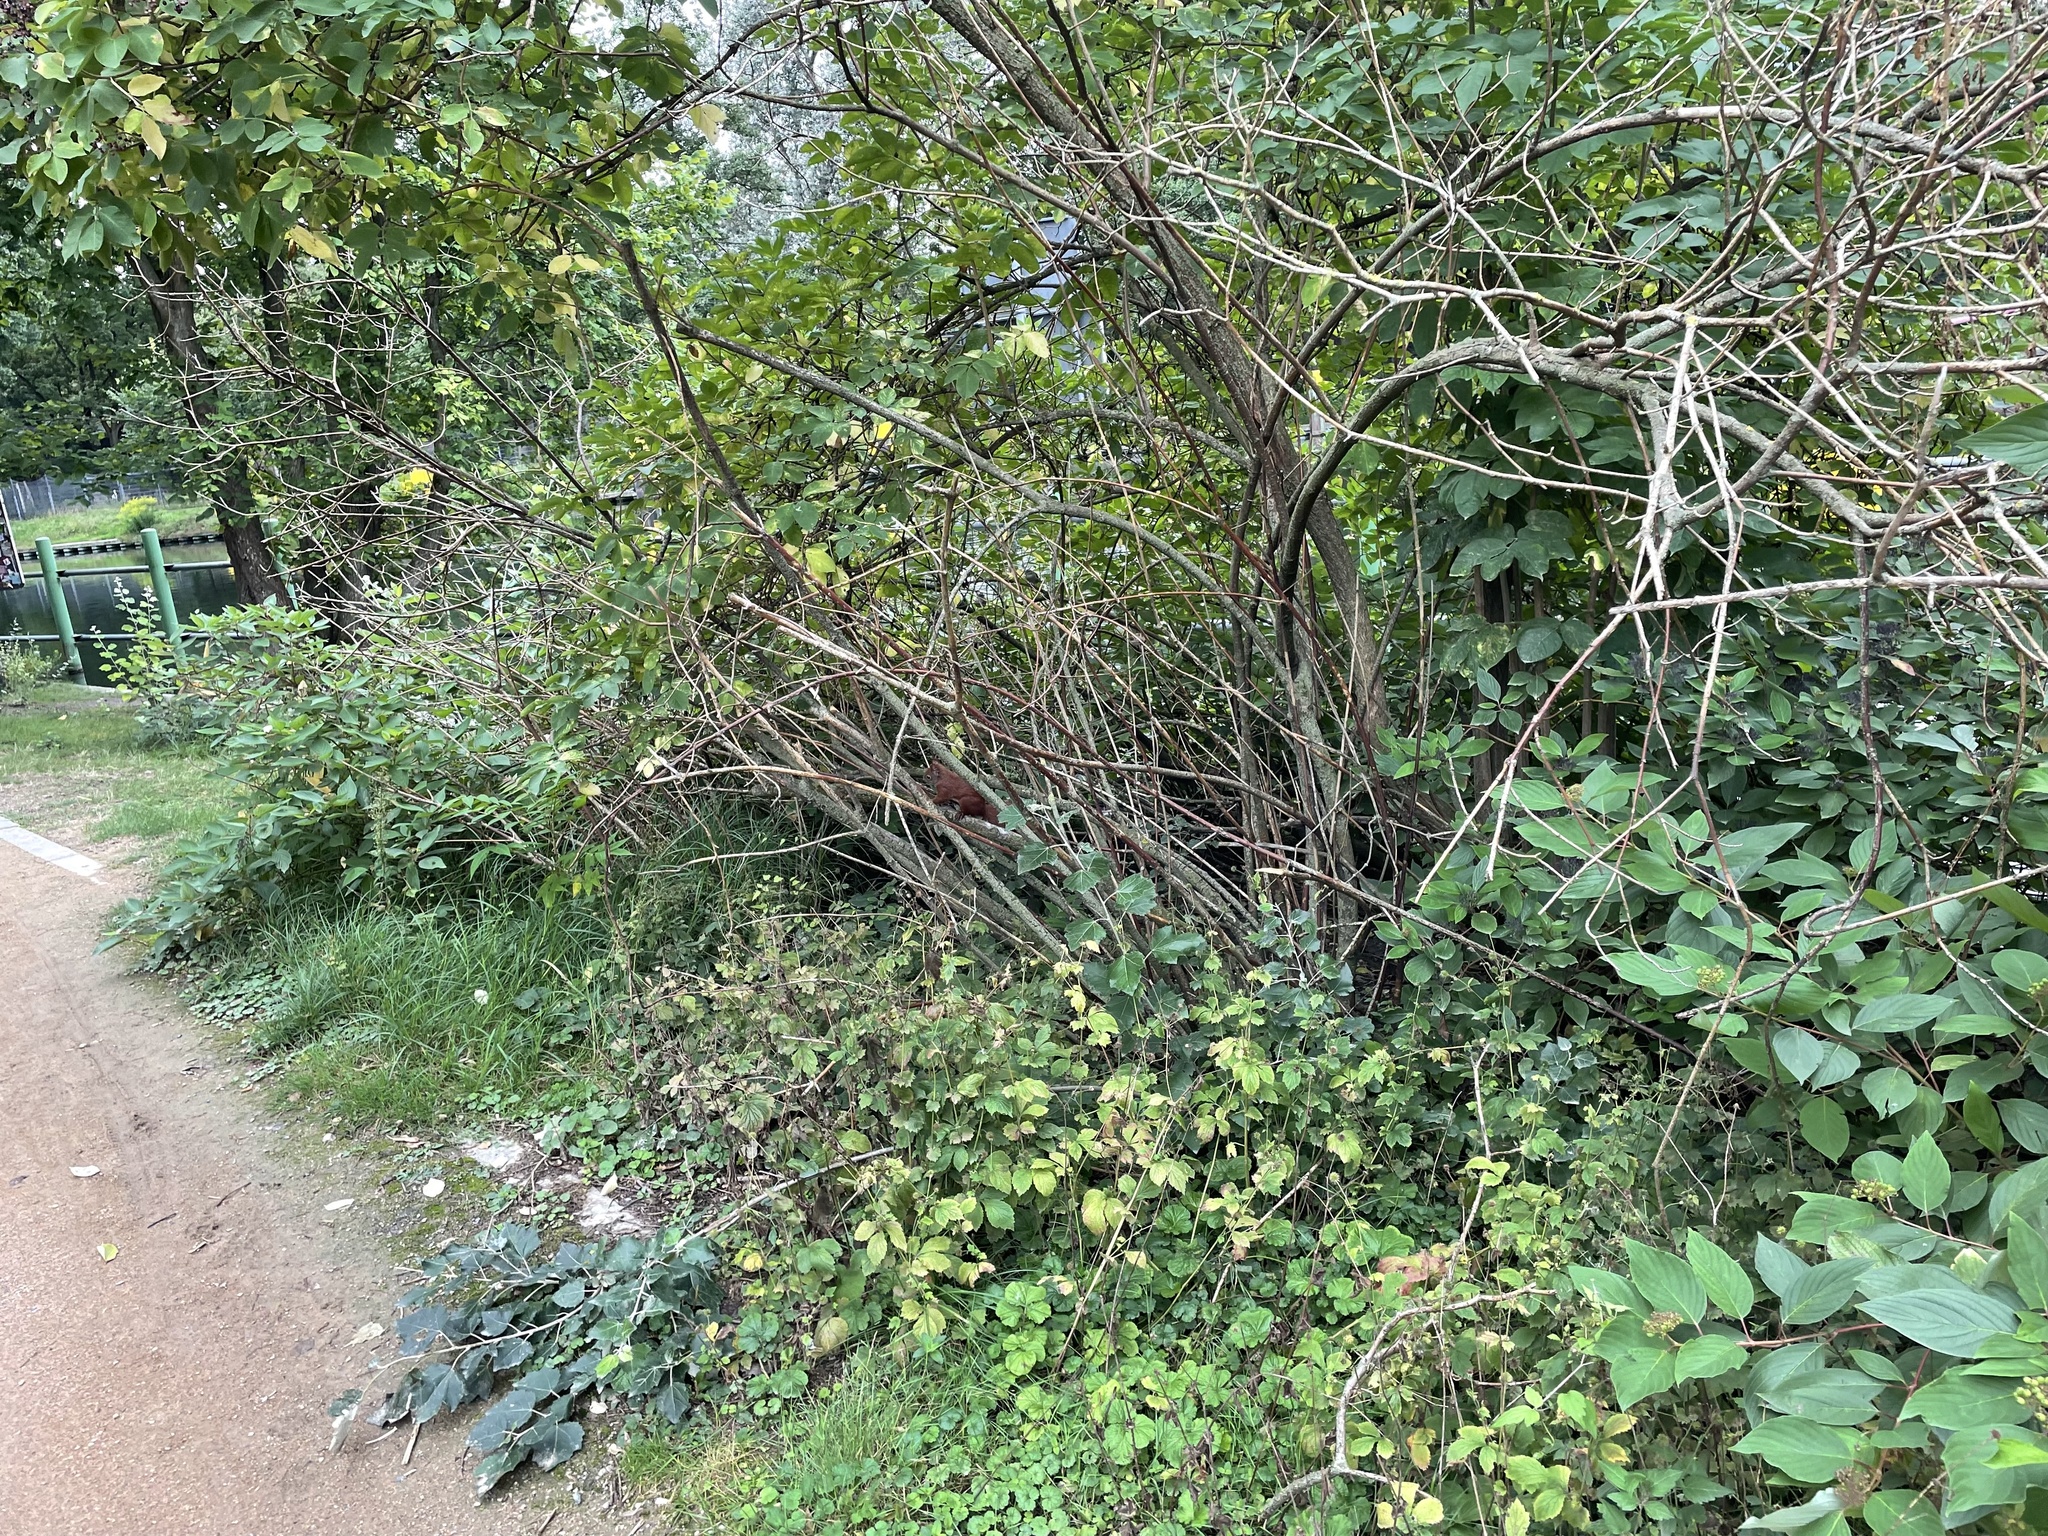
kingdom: Animalia
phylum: Chordata
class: Mammalia
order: Rodentia
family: Sciuridae
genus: Sciurus
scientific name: Sciurus vulgaris
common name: Eurasian red squirrel
